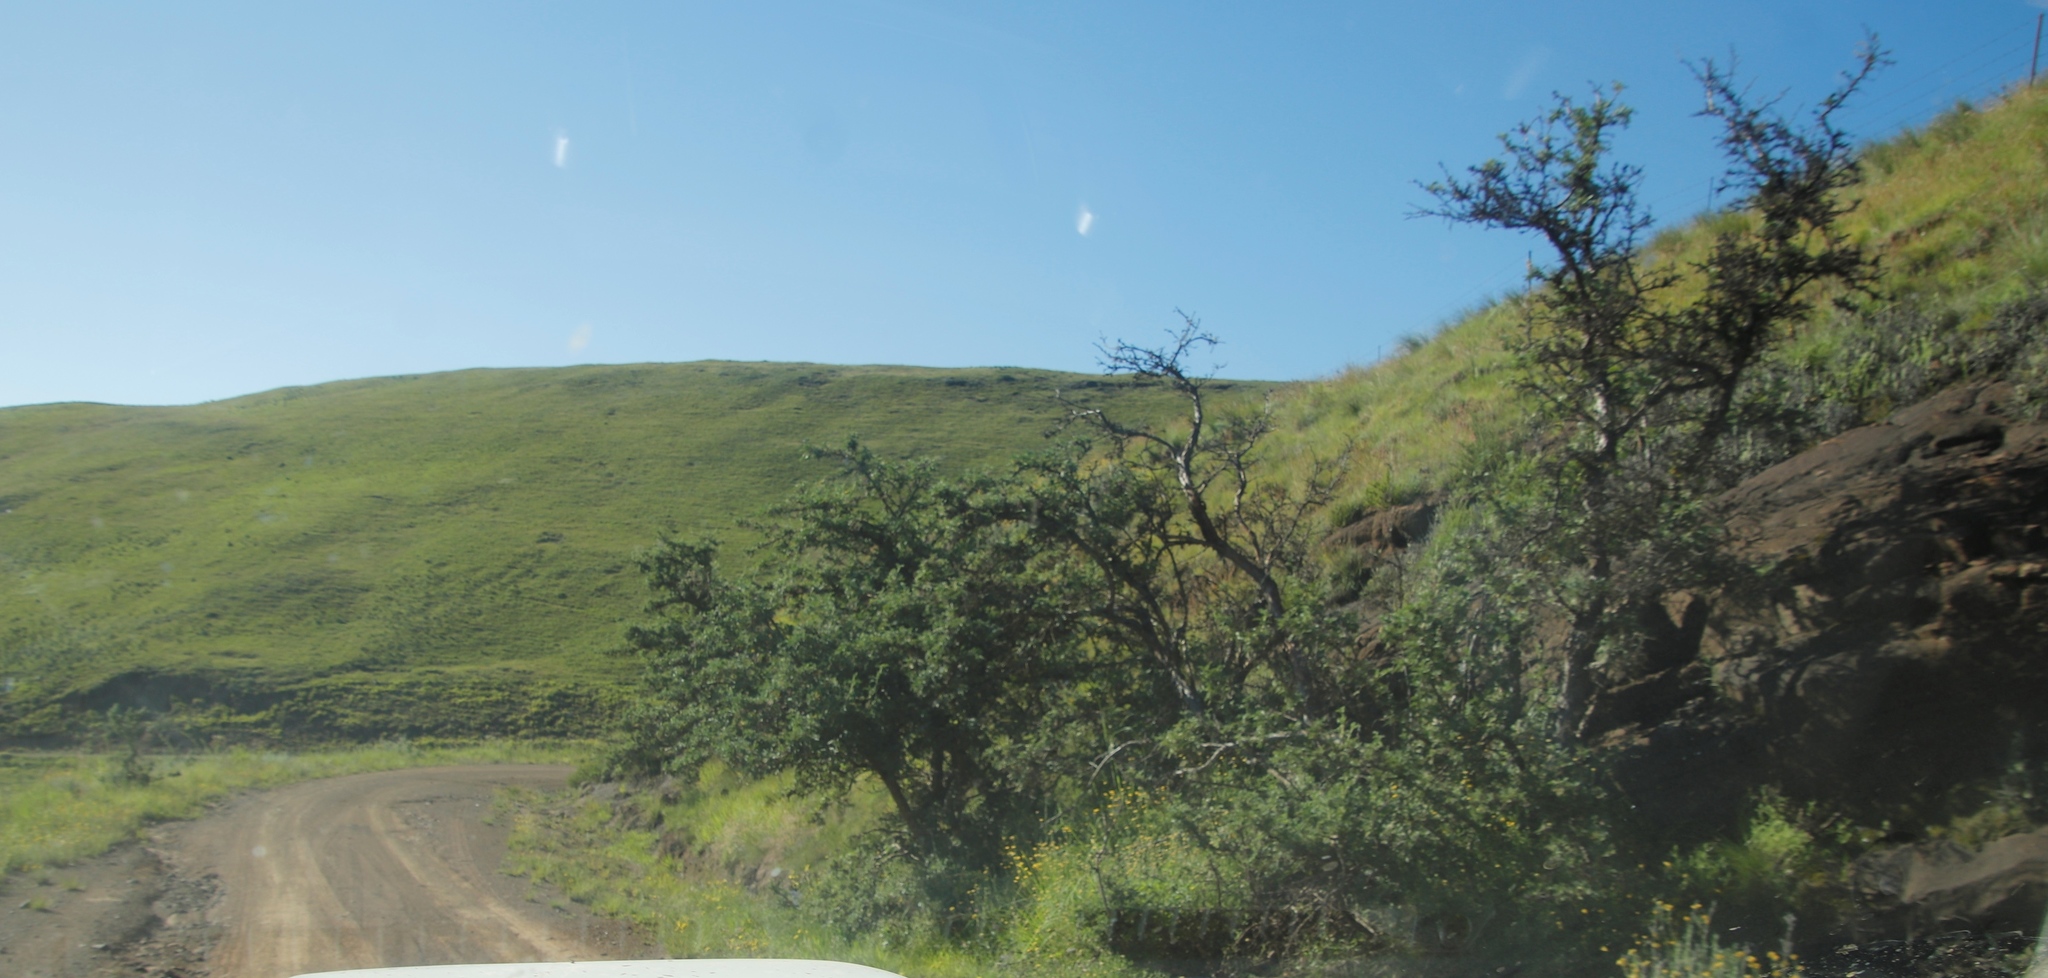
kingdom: Plantae
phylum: Tracheophyta
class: Magnoliopsida
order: Rosales
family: Rosaceae
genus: Leucosidea
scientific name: Leucosidea sericea
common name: Oldwood
